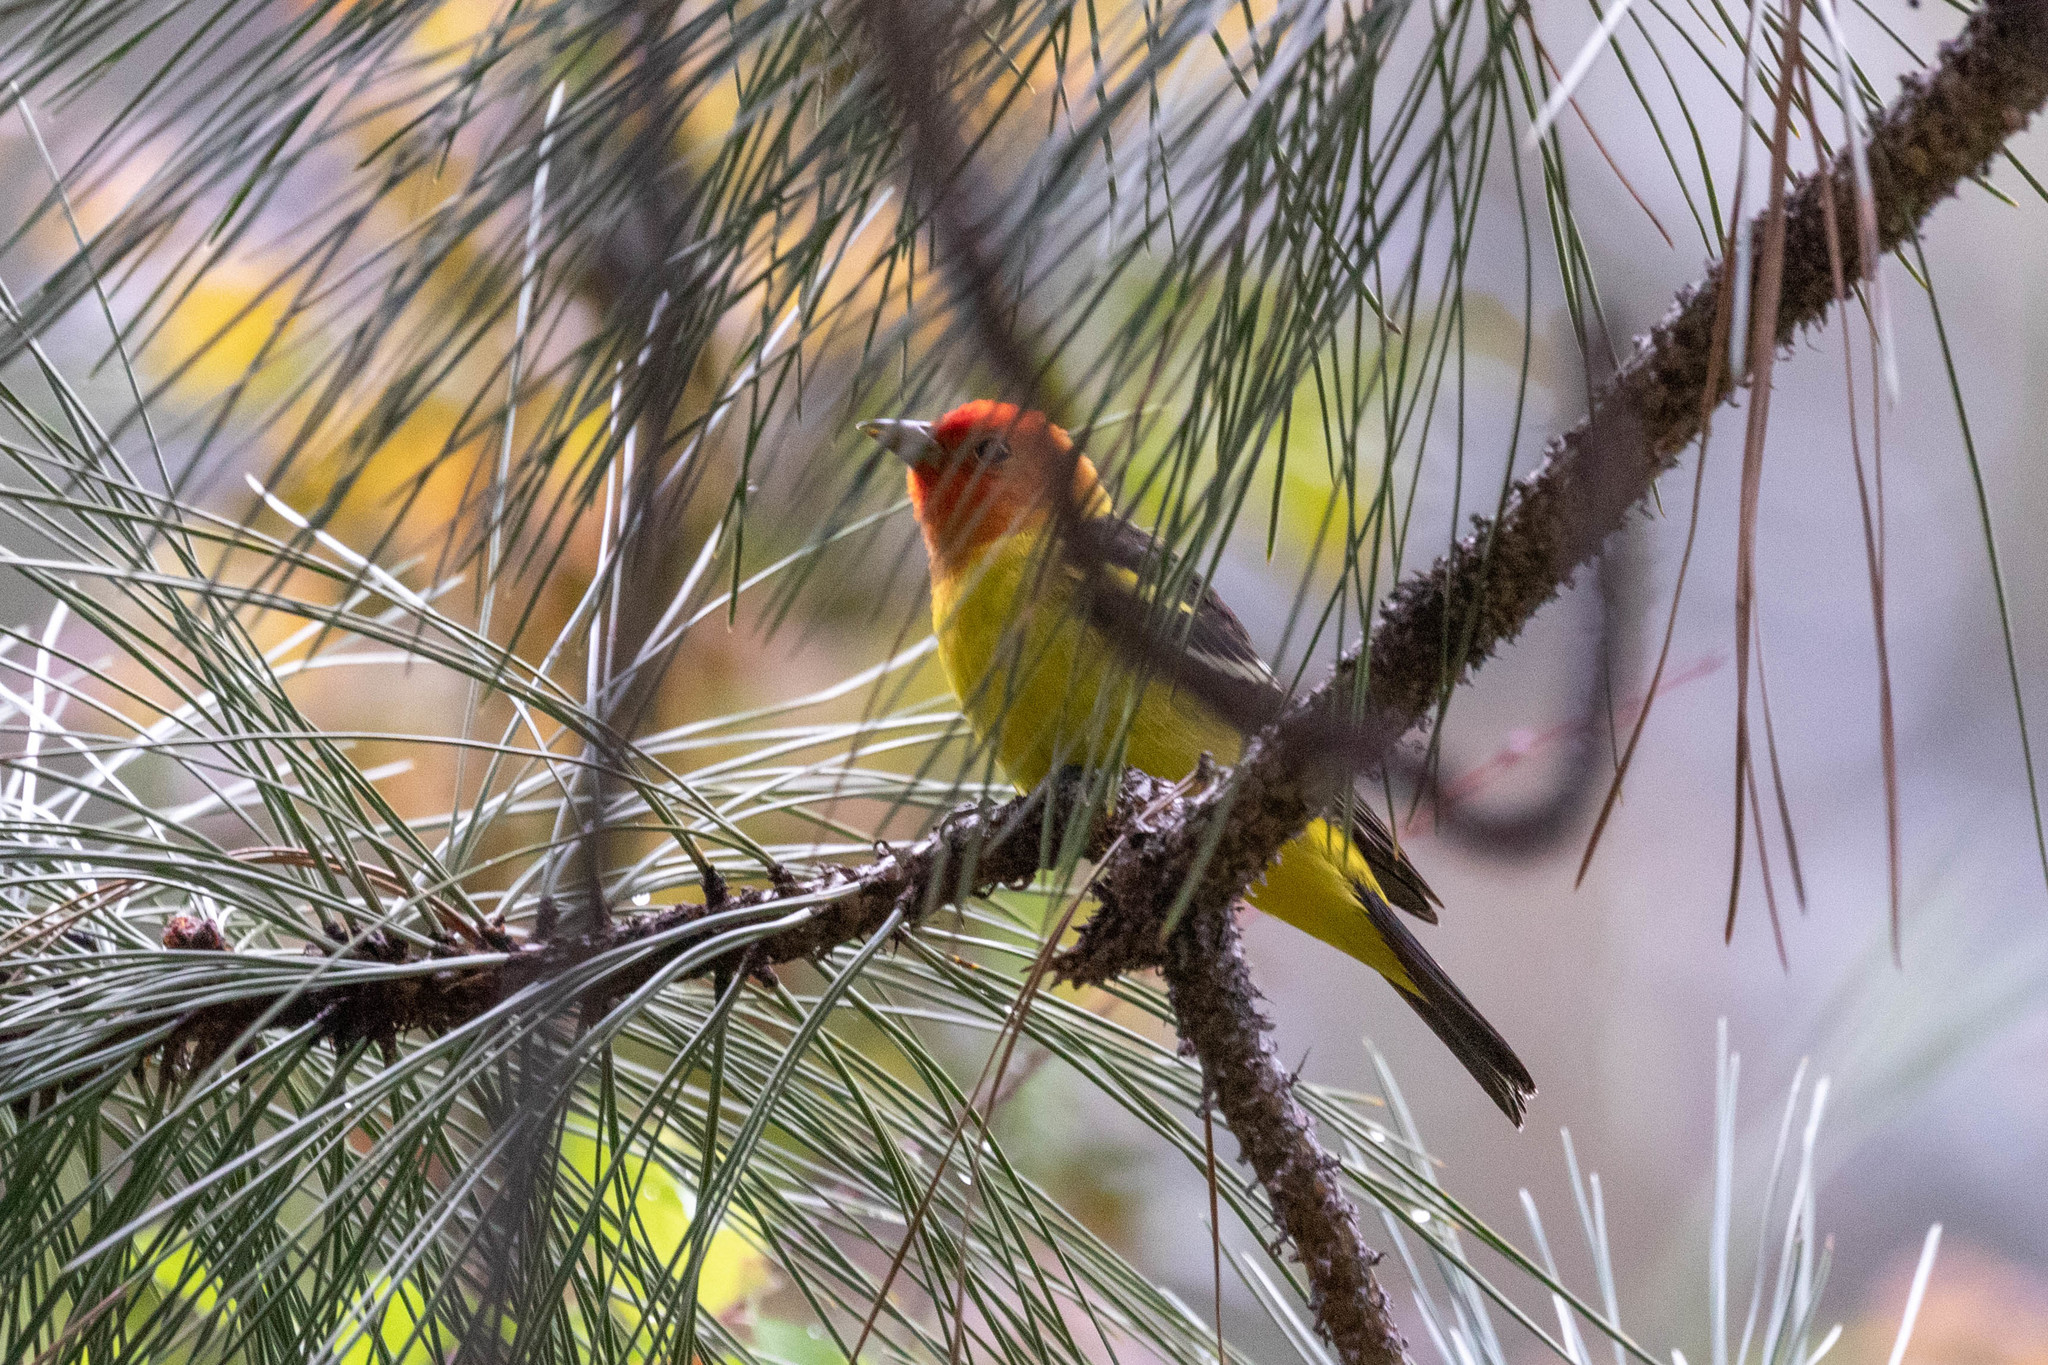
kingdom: Animalia
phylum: Chordata
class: Aves
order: Passeriformes
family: Cardinalidae
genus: Piranga
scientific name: Piranga ludoviciana
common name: Western tanager
